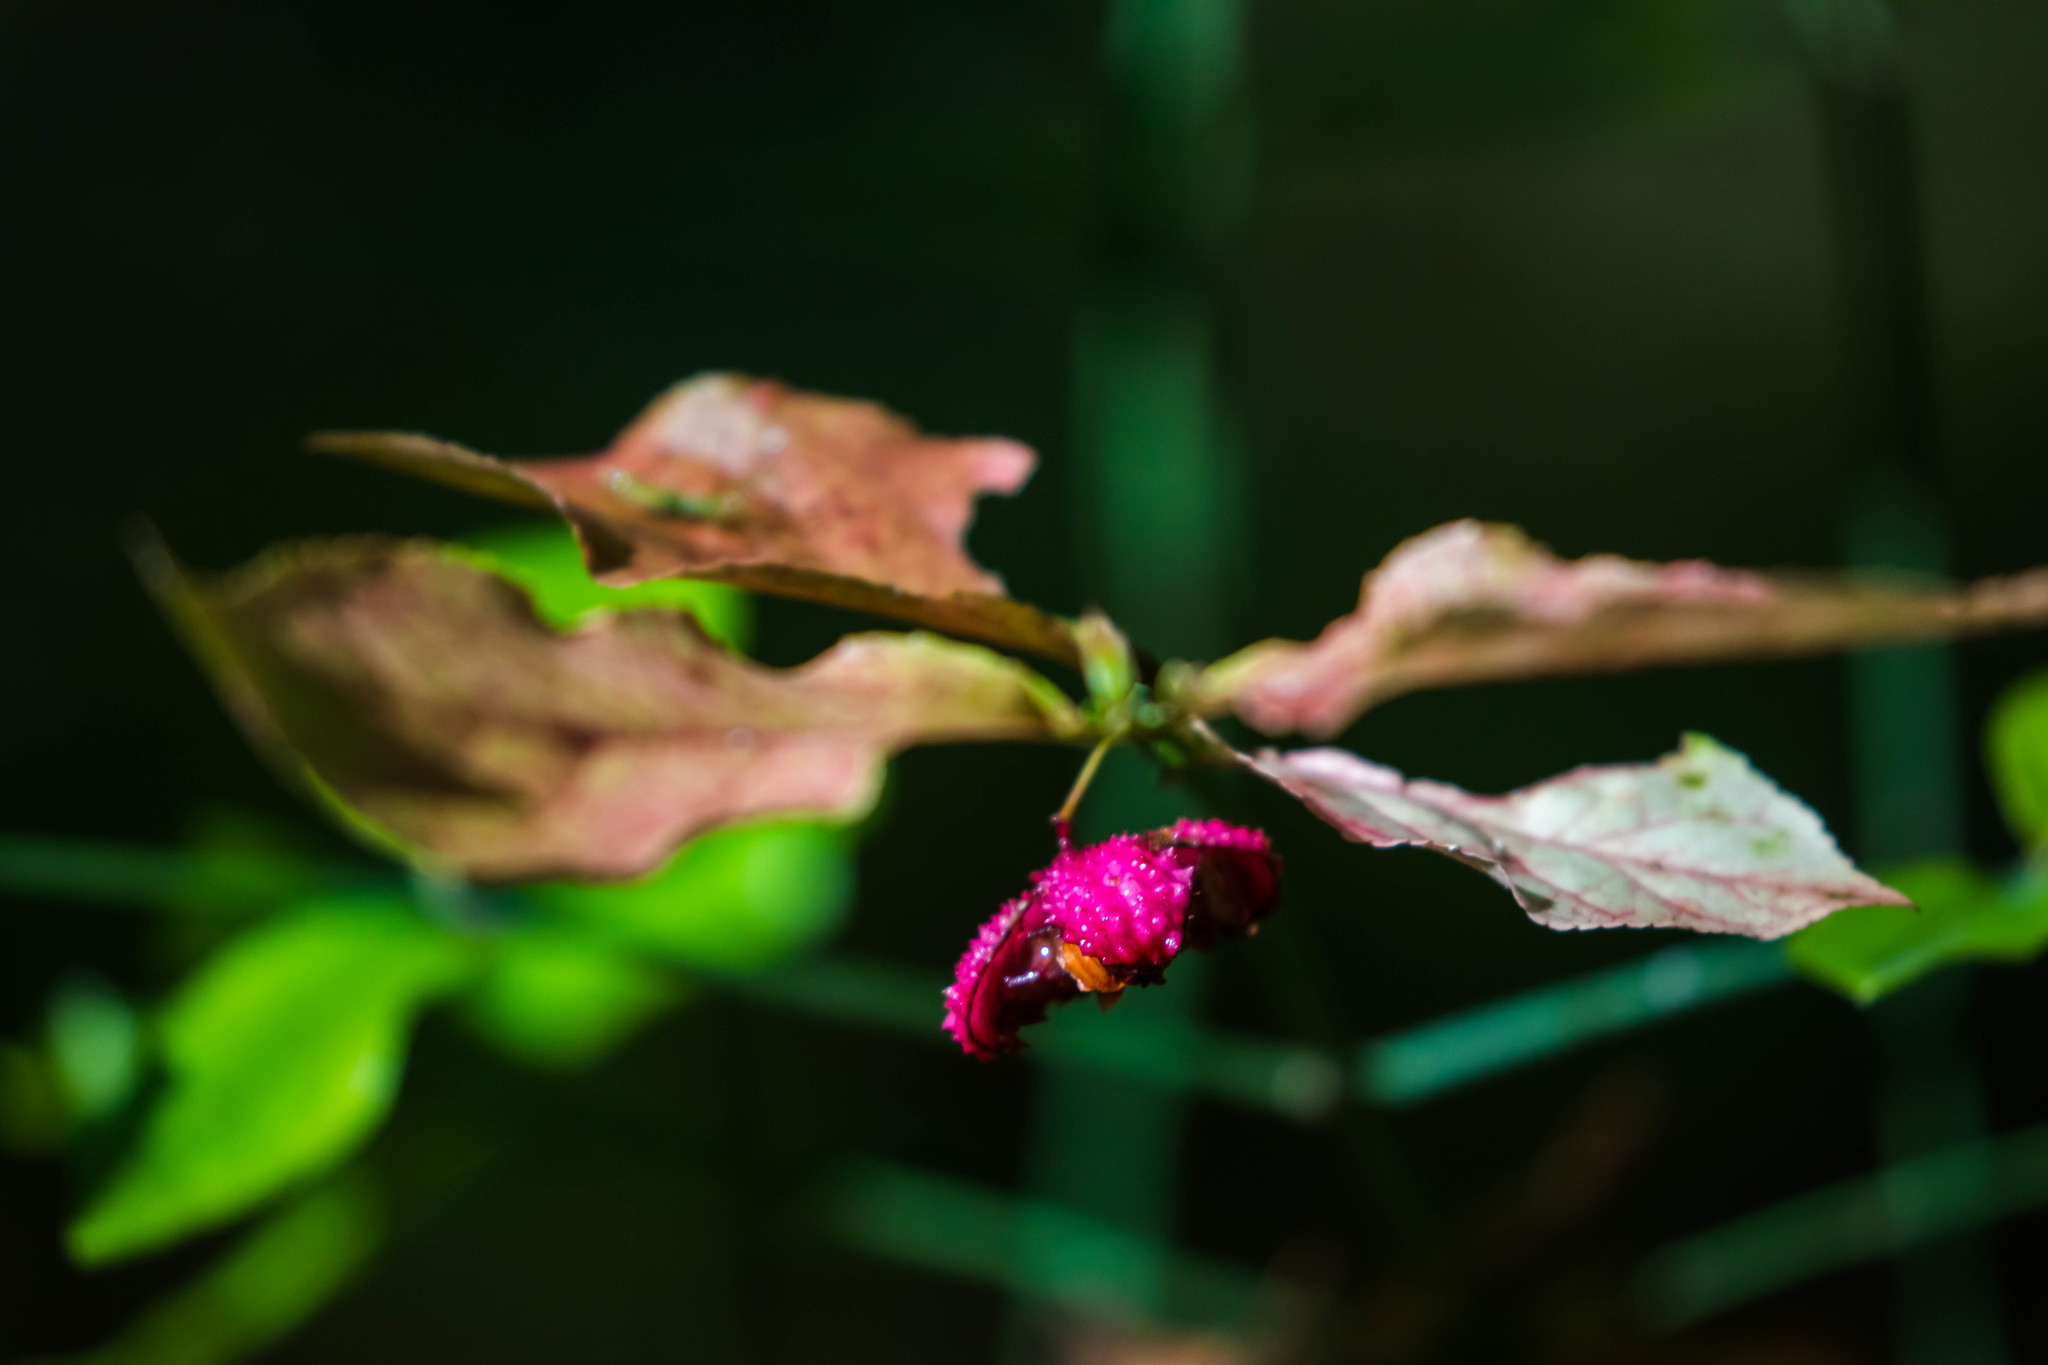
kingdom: Plantae
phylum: Tracheophyta
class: Magnoliopsida
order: Celastrales
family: Celastraceae
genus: Euonymus
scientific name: Euonymus americanus
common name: Bursting-heart
